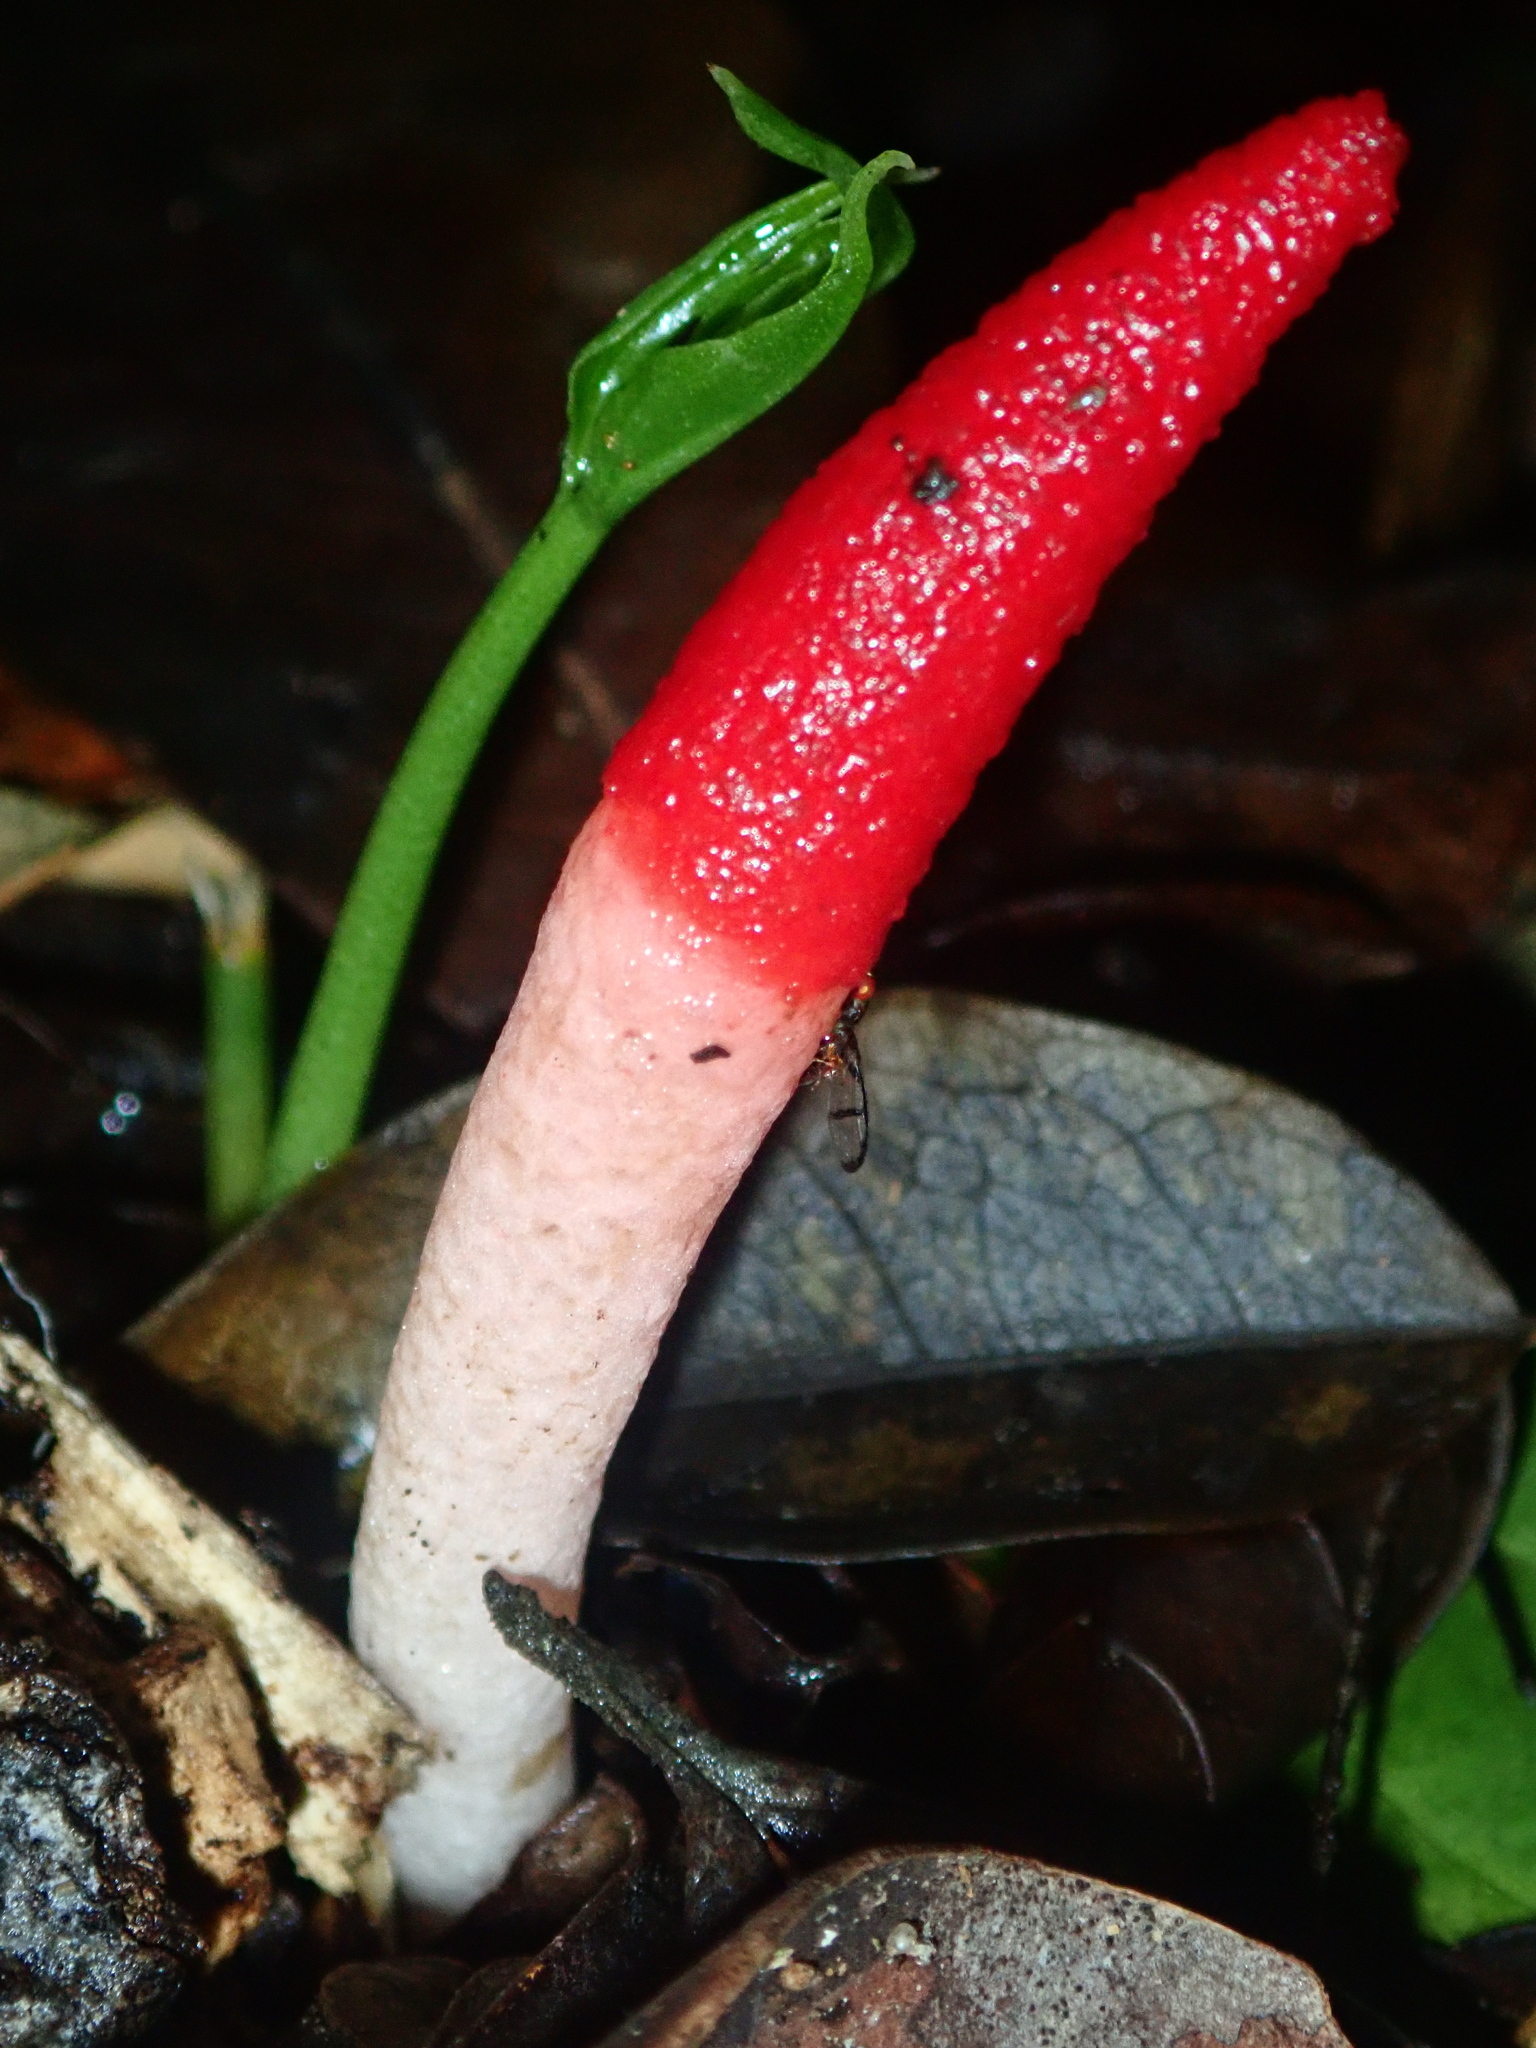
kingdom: Fungi
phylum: Basidiomycota
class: Agaricomycetes
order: Phallales
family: Phallaceae
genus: Mutinus
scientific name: Mutinus argentinus
